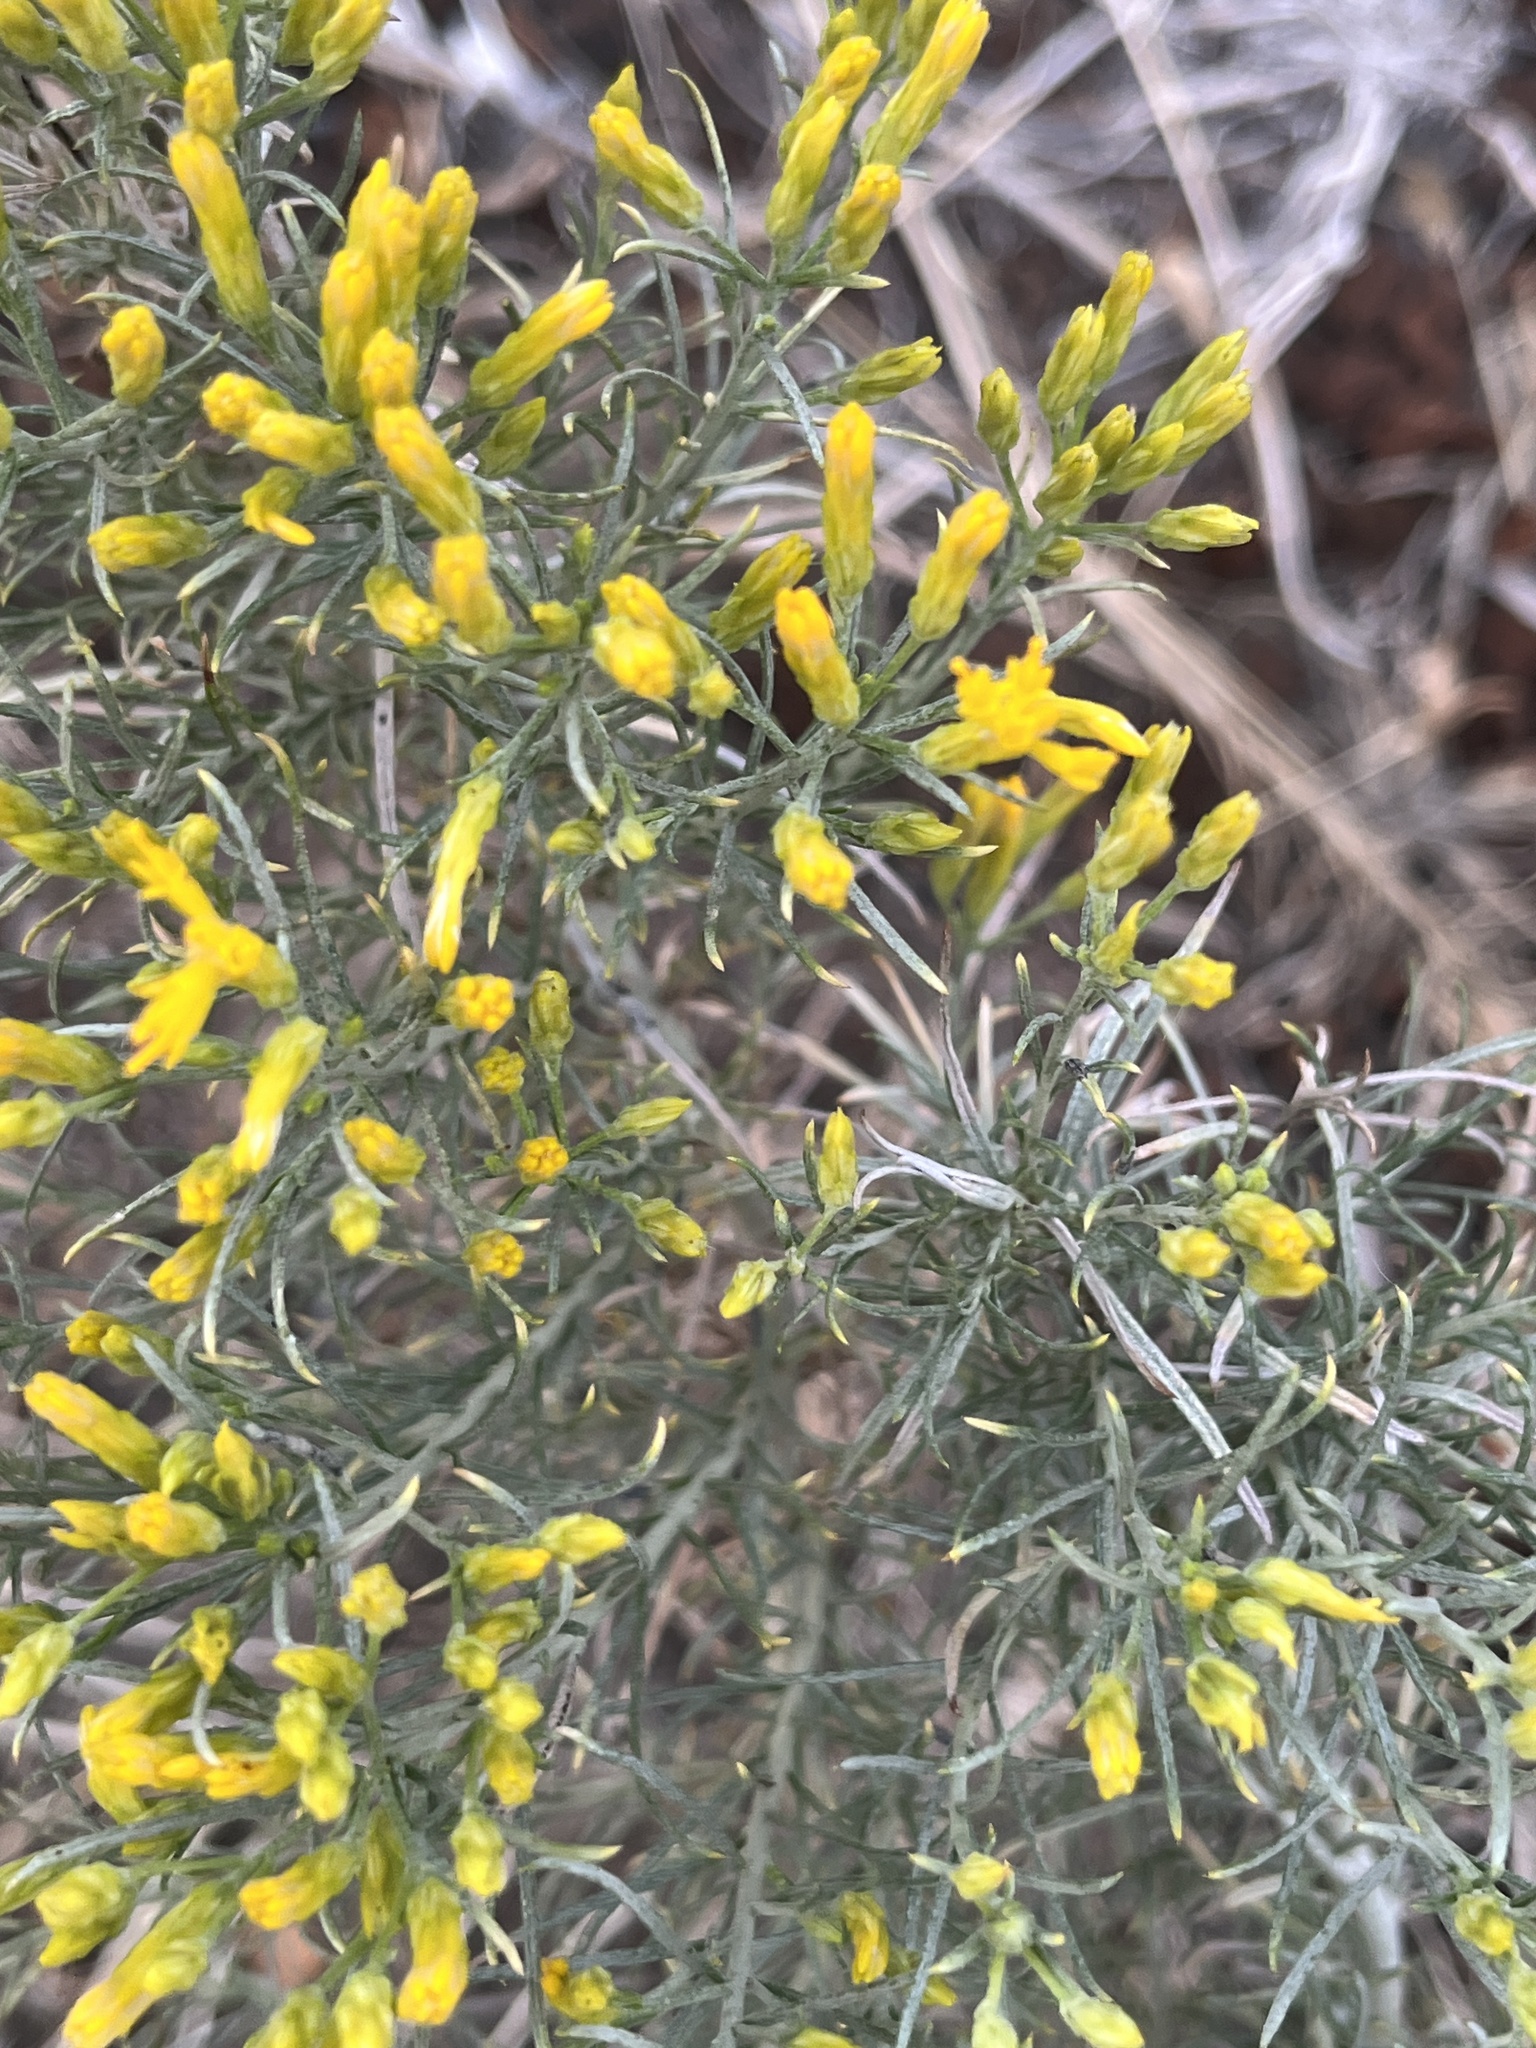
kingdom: Plantae
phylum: Tracheophyta
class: Magnoliopsida
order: Asterales
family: Asteraceae
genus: Ericameria
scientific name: Ericameria nauseosa
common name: Rubber rabbitbrush
